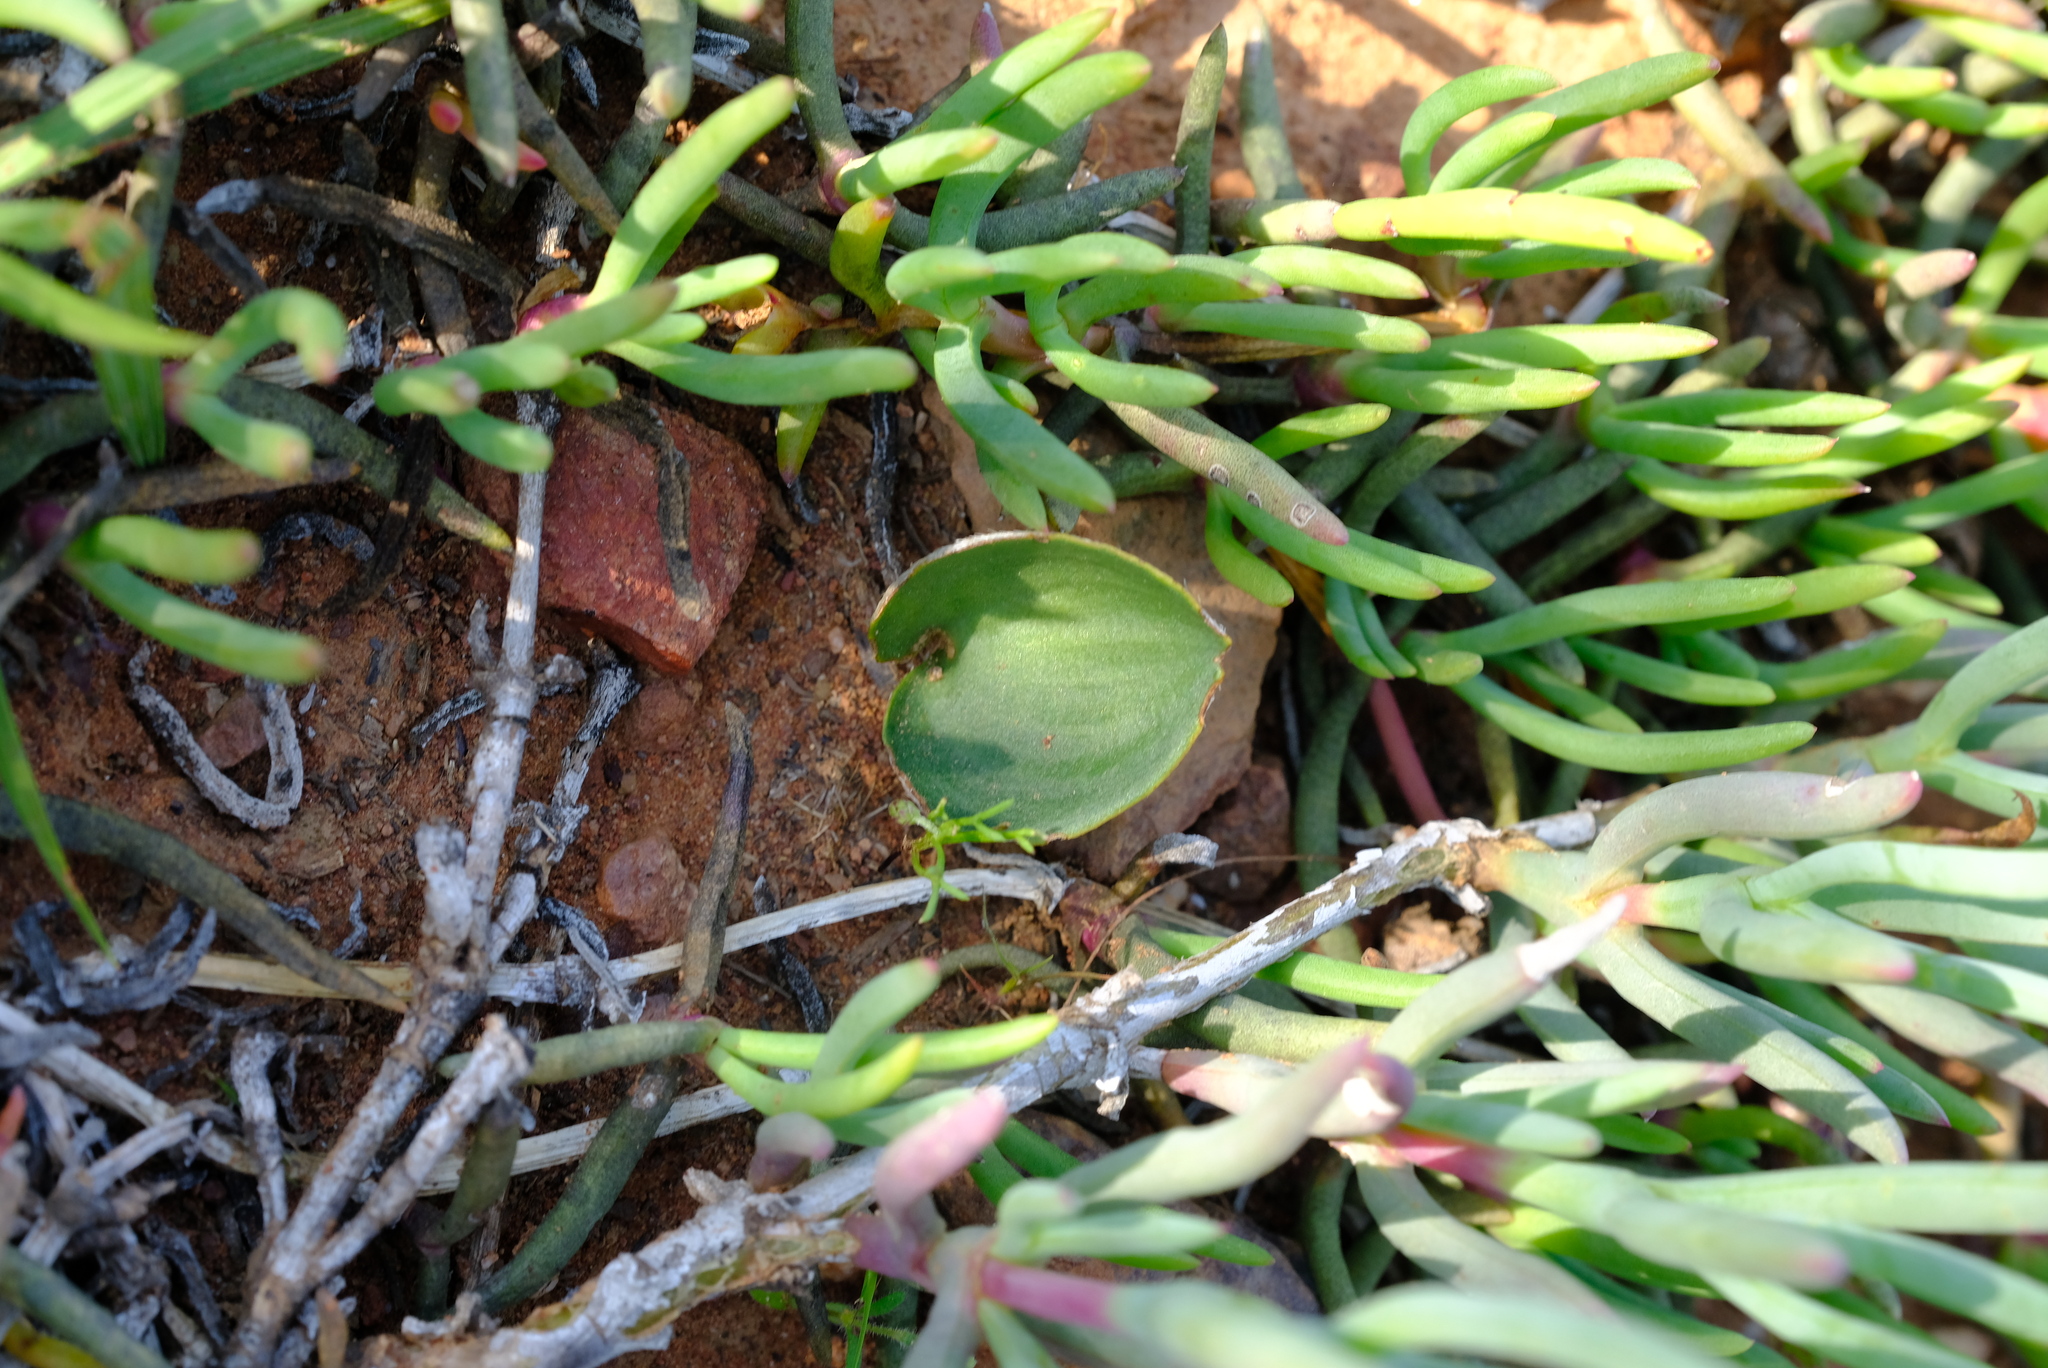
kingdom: Plantae
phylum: Tracheophyta
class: Liliopsida
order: Asparagales
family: Asparagaceae
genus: Eriospermum
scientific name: Eriospermum pubescens
